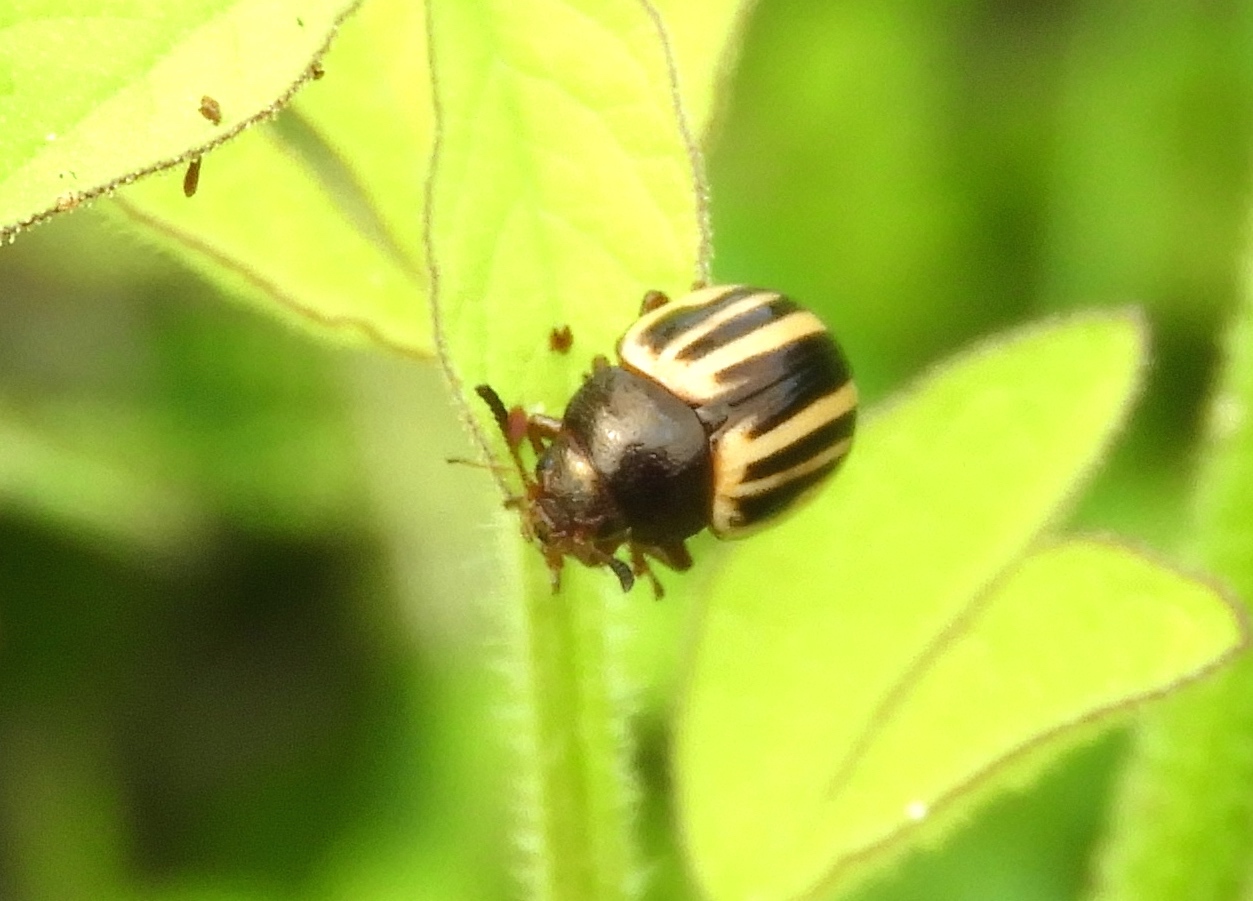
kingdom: Animalia
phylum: Arthropoda
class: Insecta
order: Coleoptera
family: Chrysomelidae
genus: Zygogramma
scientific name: Zygogramma
